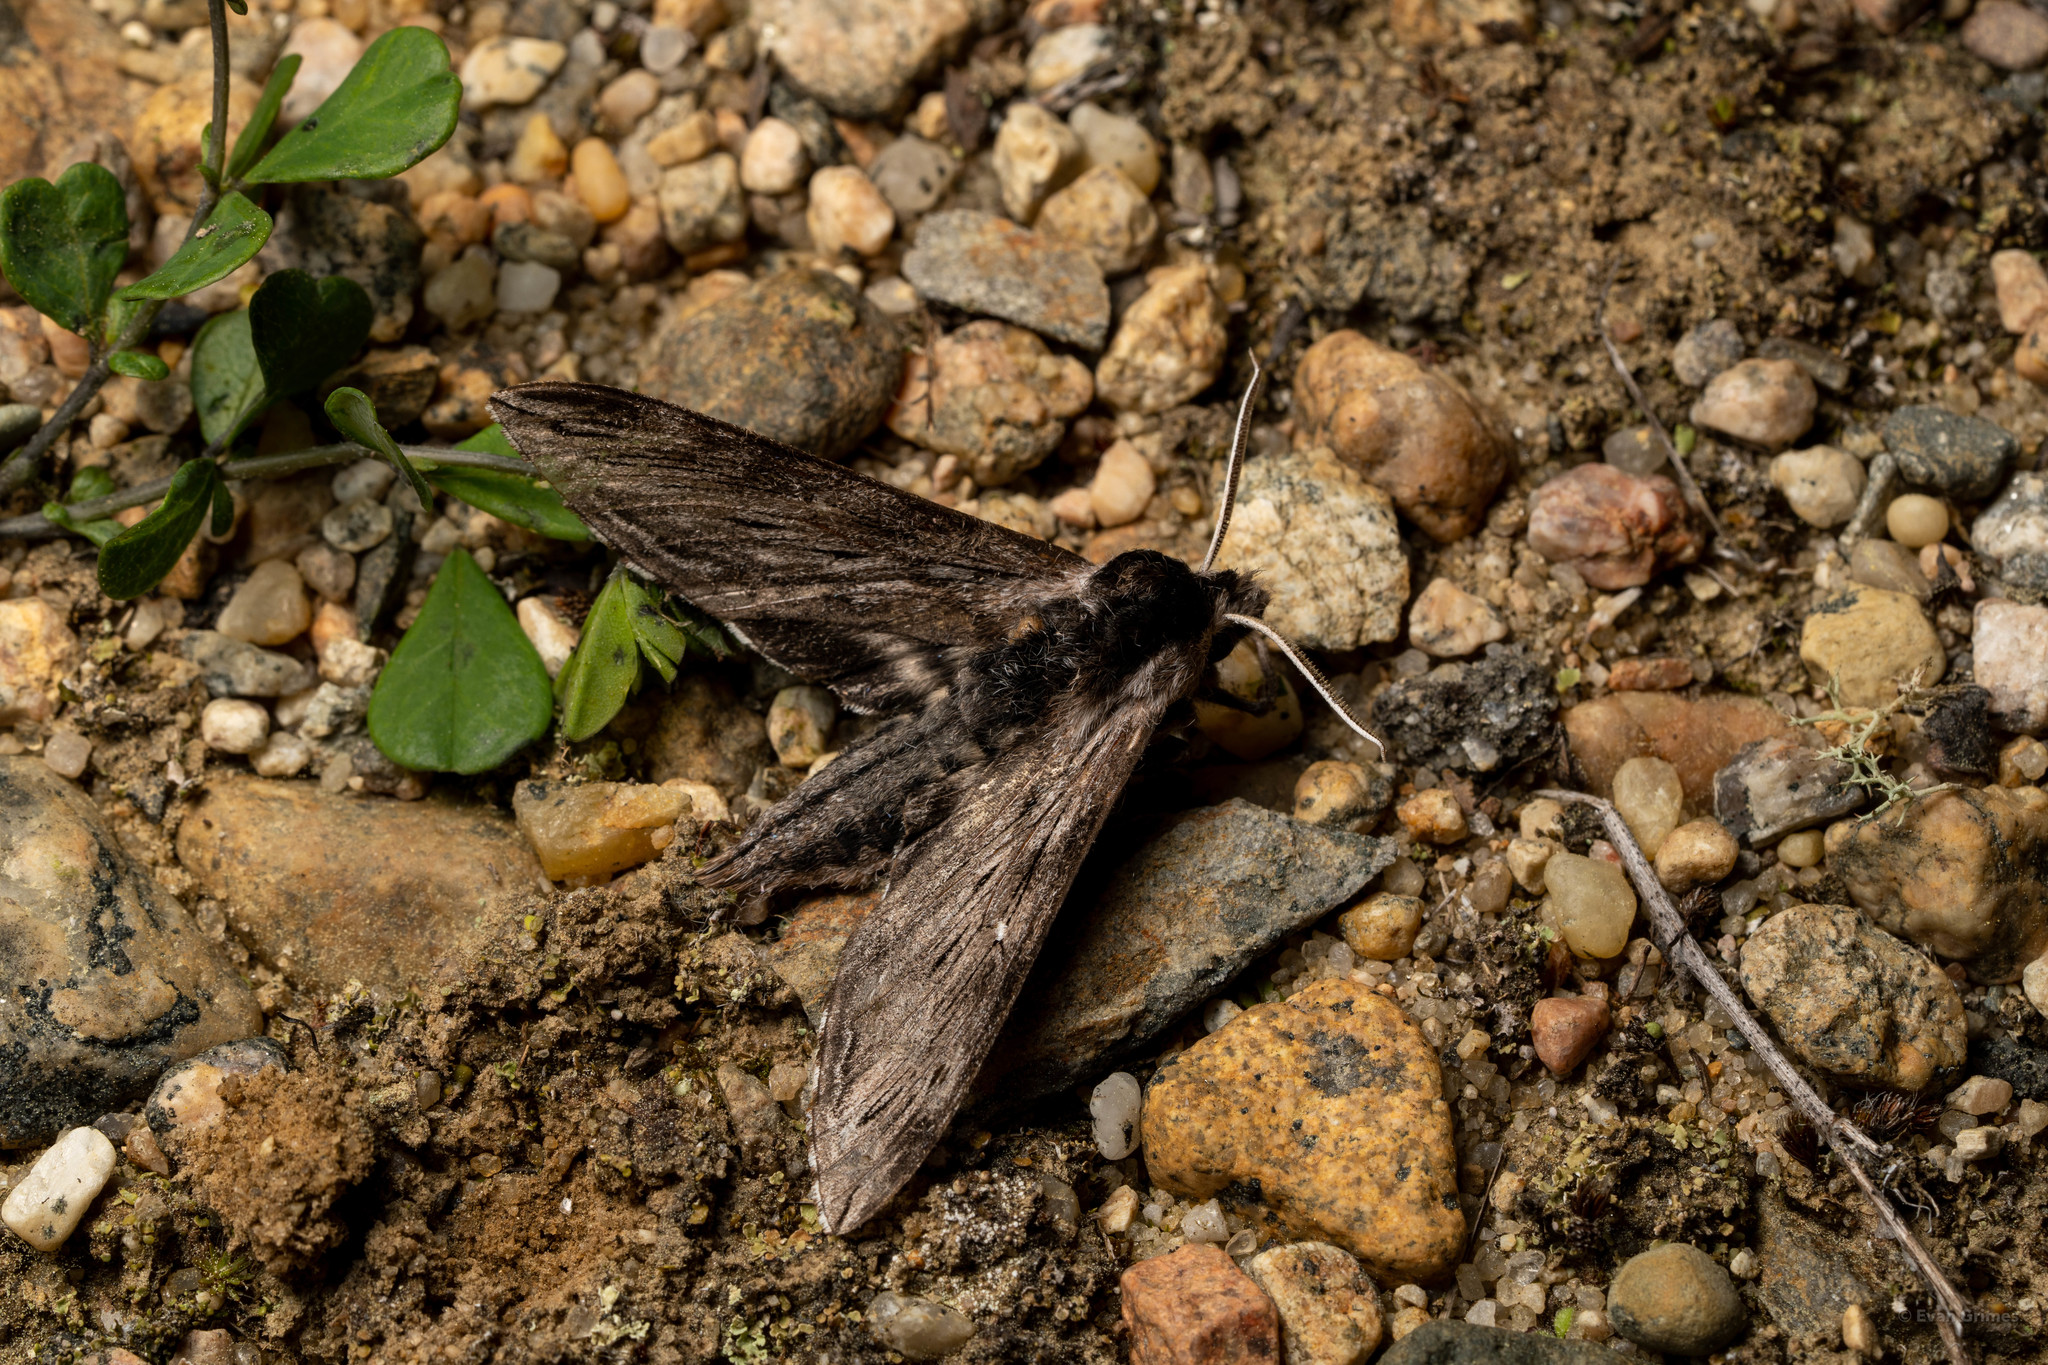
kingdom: Animalia
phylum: Arthropoda
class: Insecta
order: Lepidoptera
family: Sphingidae
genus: Sphinx
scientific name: Sphinx poecila
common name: Northern apple sphinx
